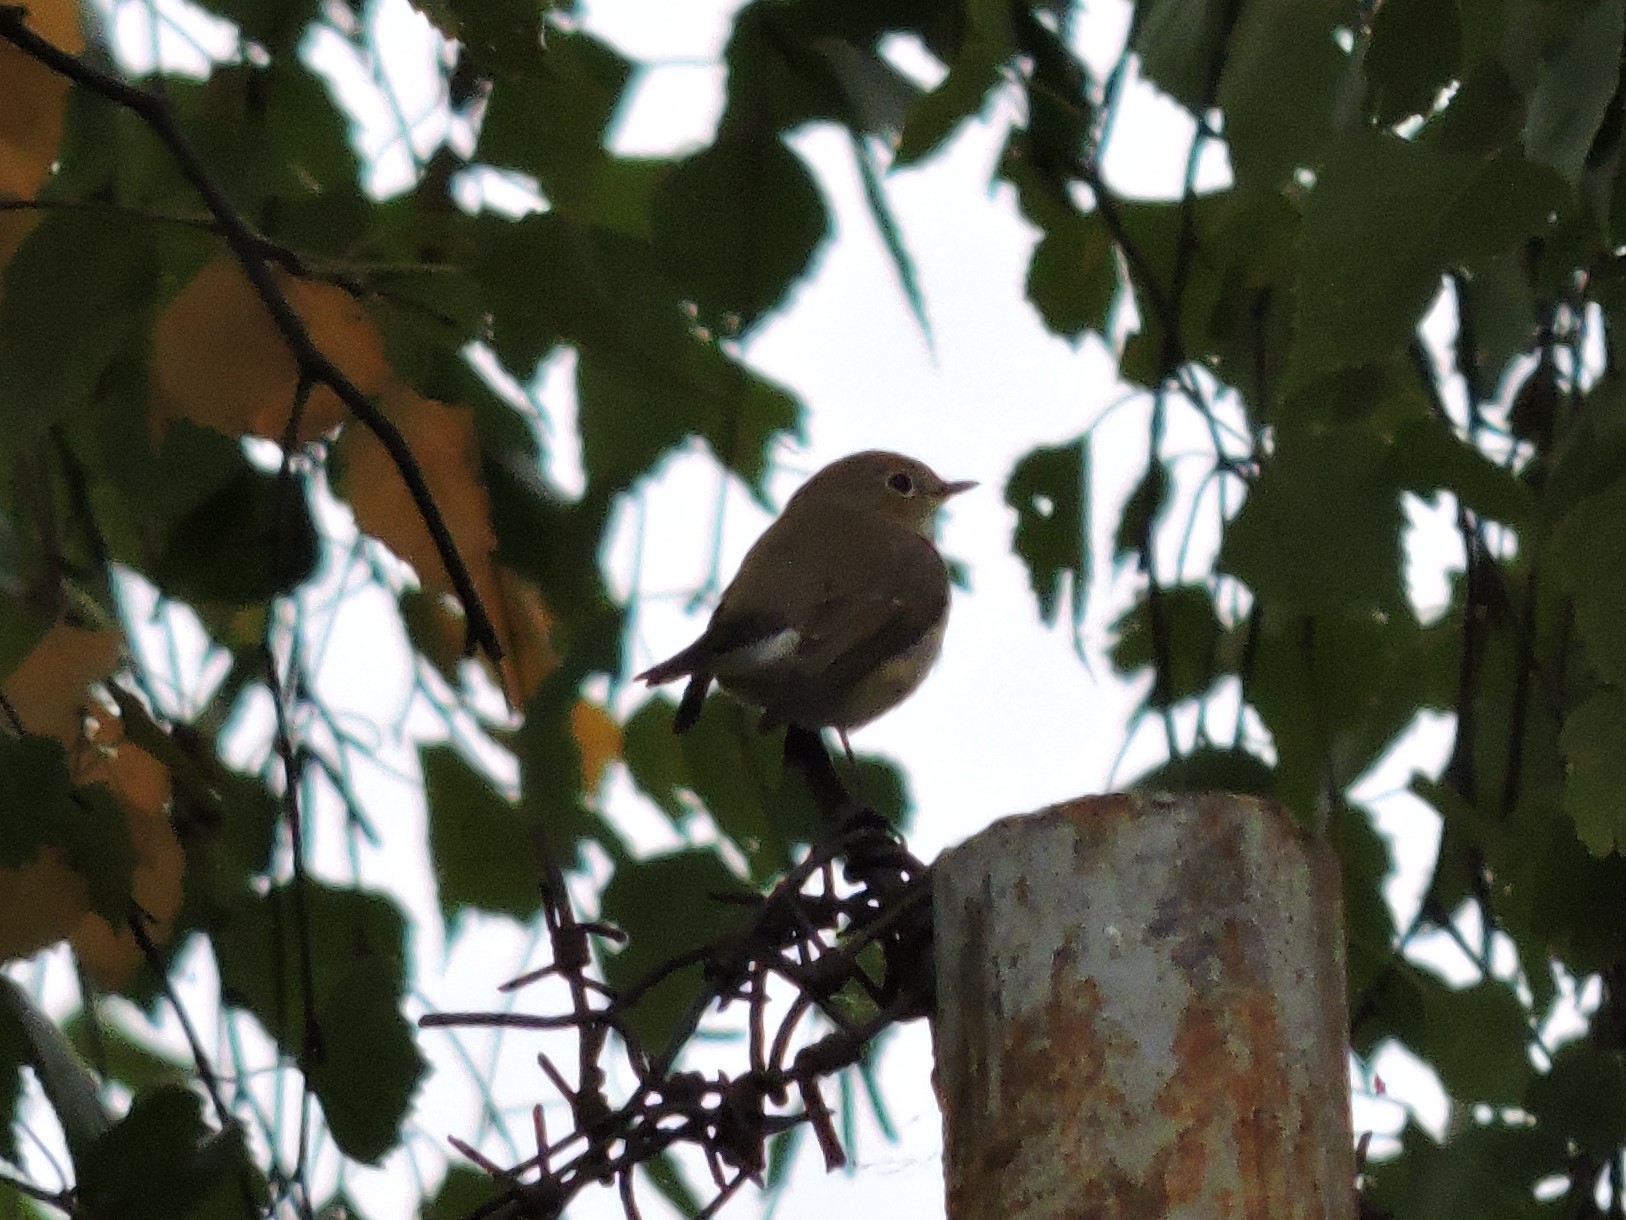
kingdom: Animalia
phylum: Chordata
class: Aves
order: Passeriformes
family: Muscicapidae
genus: Ficedula
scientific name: Ficedula parva
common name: Red-breasted flycatcher
